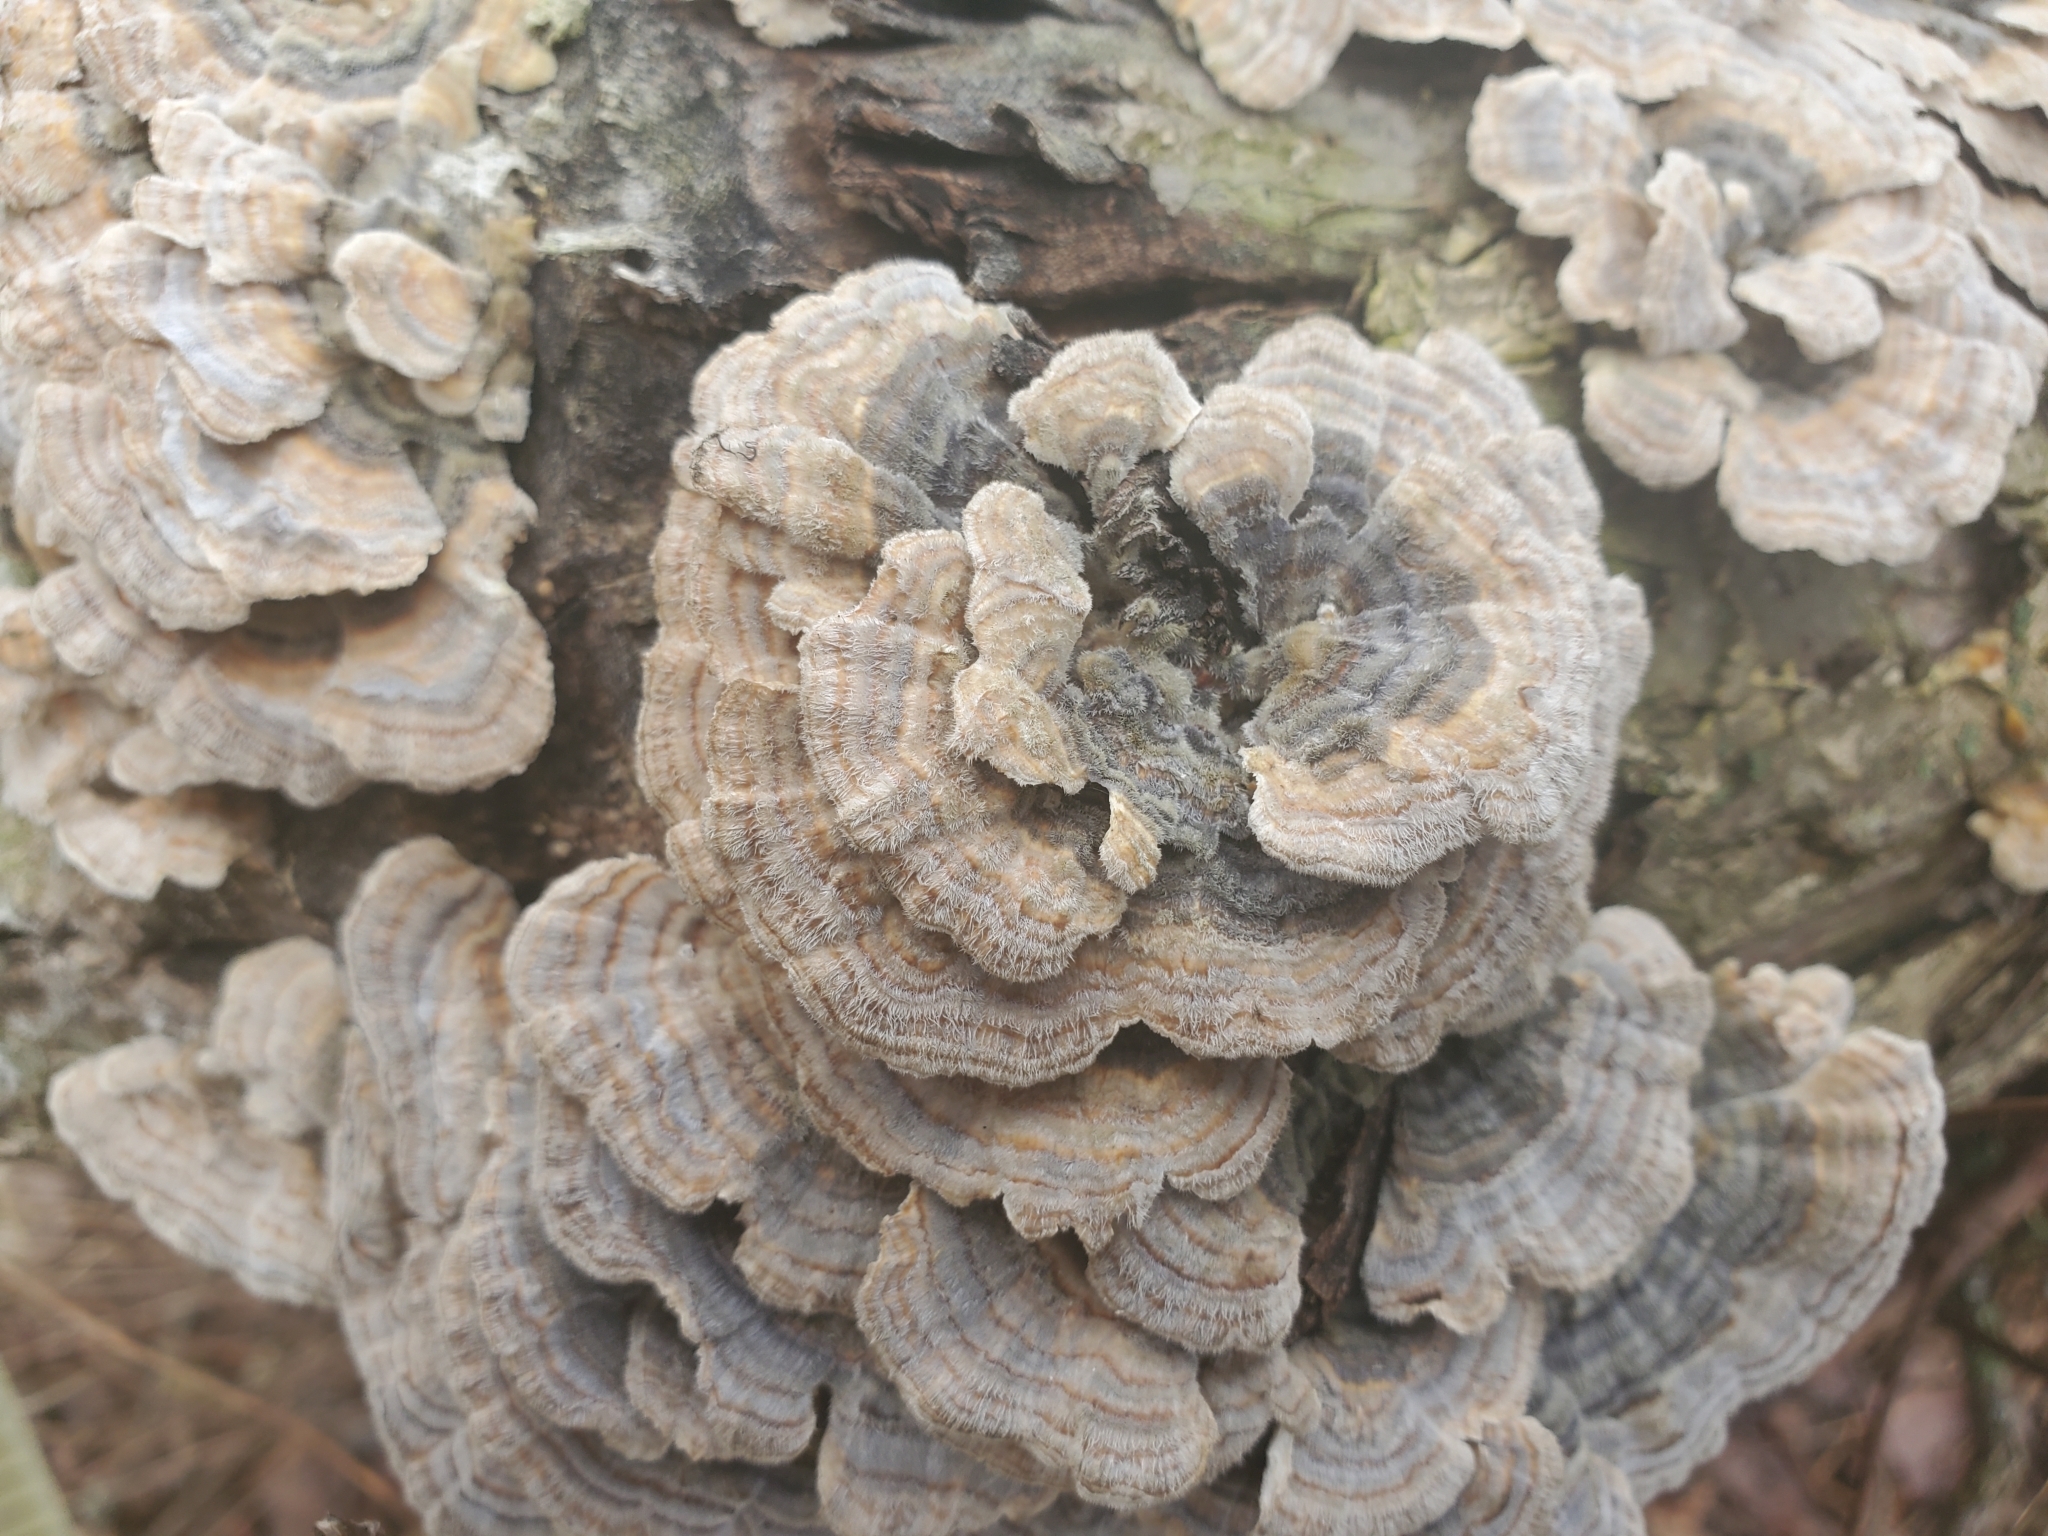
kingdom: Fungi
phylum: Basidiomycota
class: Agaricomycetes
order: Polyporales
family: Polyporaceae
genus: Trametes
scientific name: Trametes versicolor
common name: Turkeytail
